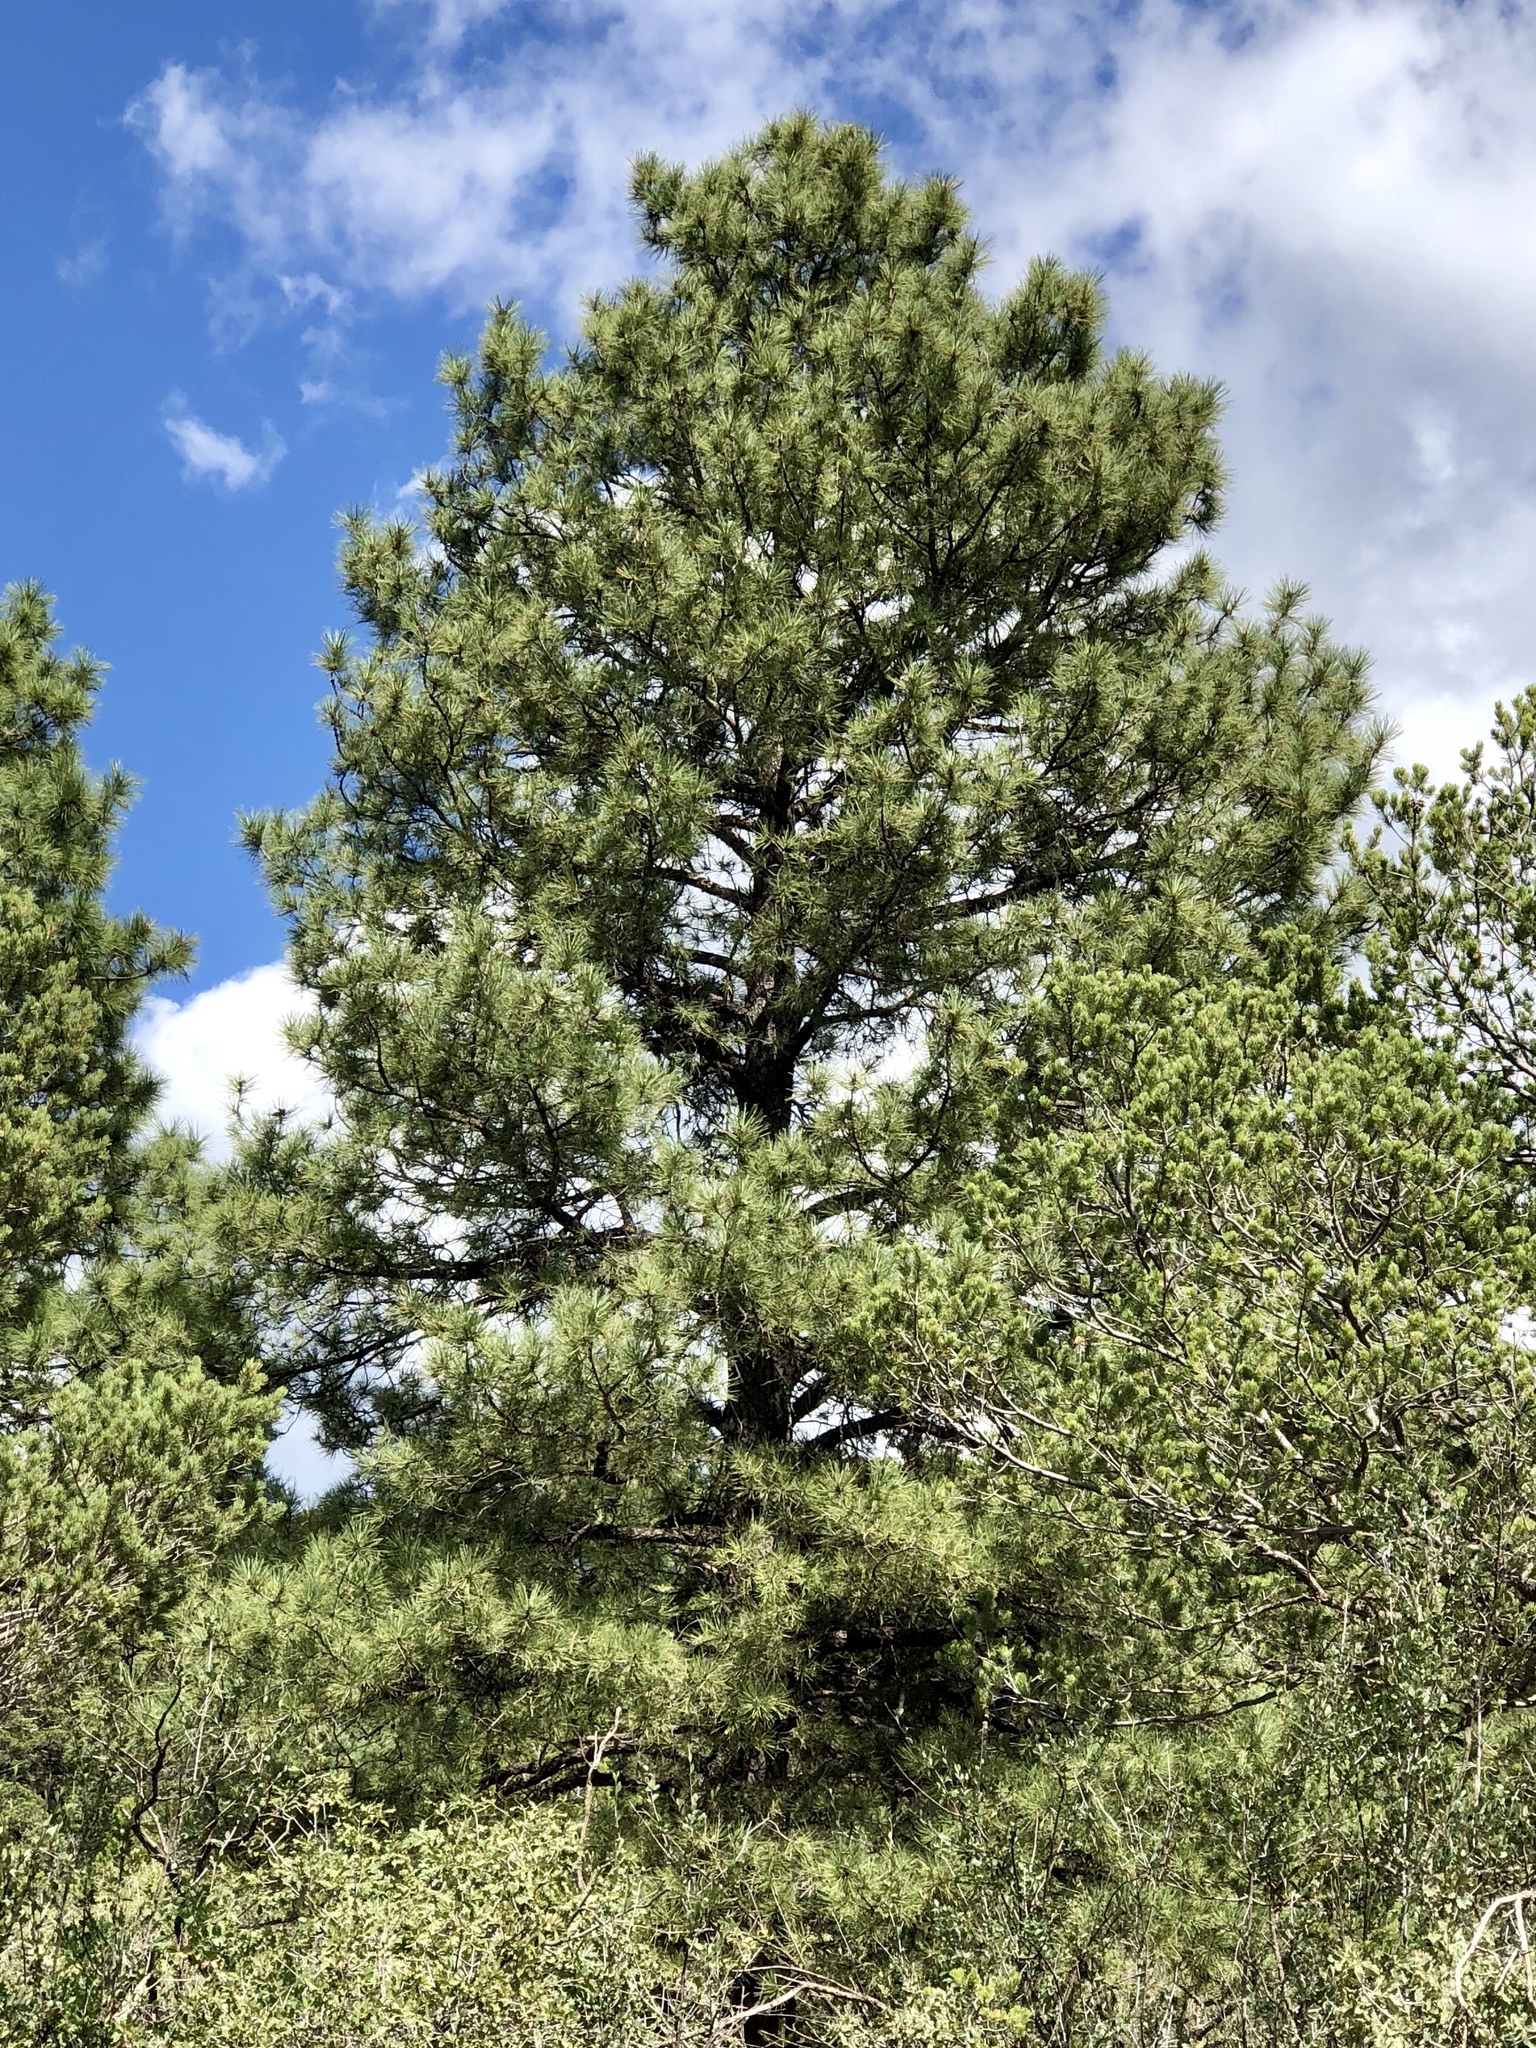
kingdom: Plantae
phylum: Tracheophyta
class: Pinopsida
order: Pinales
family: Pinaceae
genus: Pinus
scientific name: Pinus ponderosa
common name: Western yellow-pine
